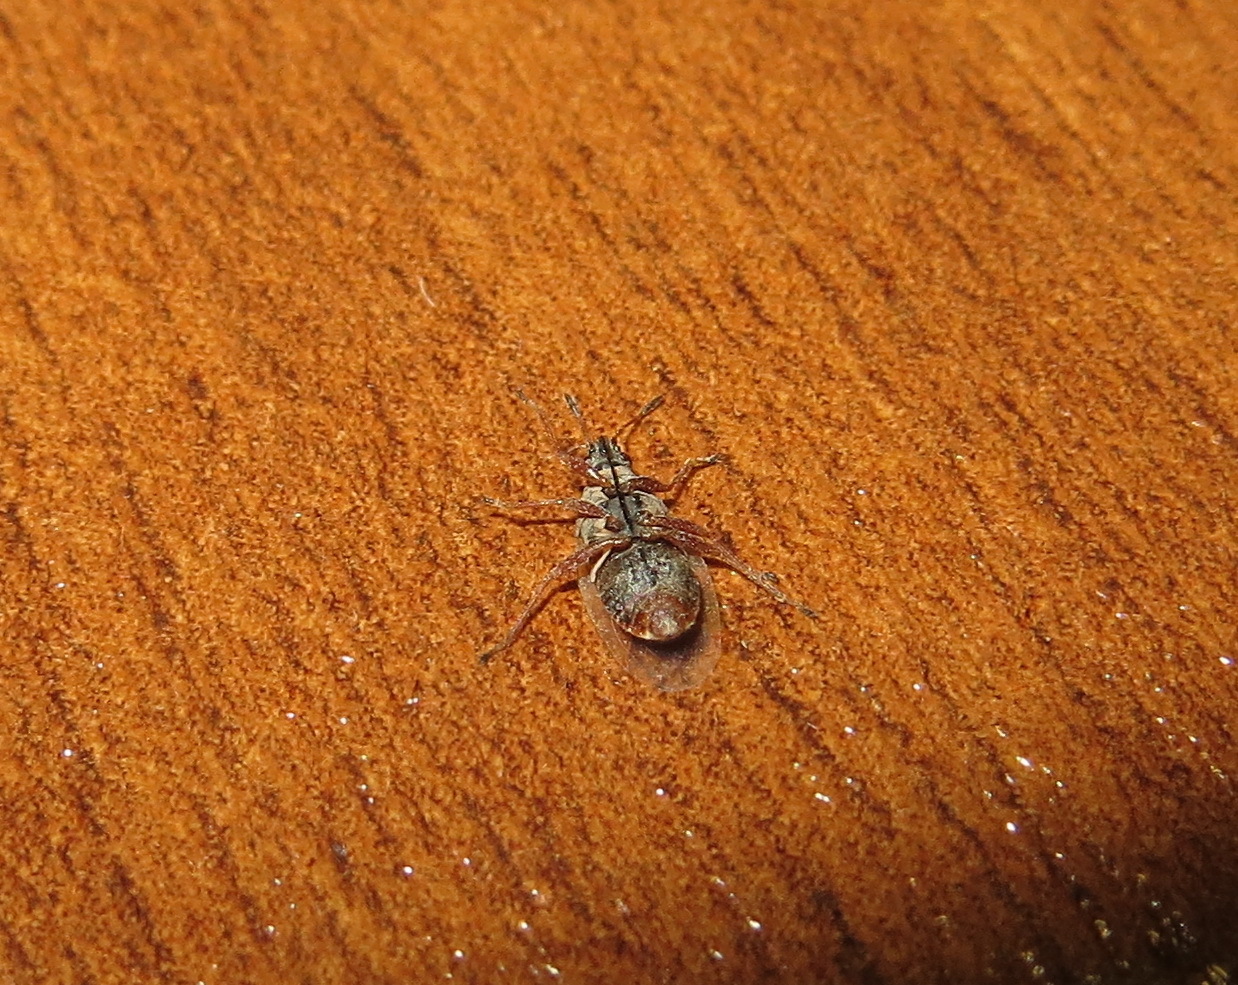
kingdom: Animalia
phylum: Arthropoda
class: Insecta
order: Hemiptera
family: Lygaeidae
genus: Kleidocerys
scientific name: Kleidocerys resedae
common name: Birch catkin bug
